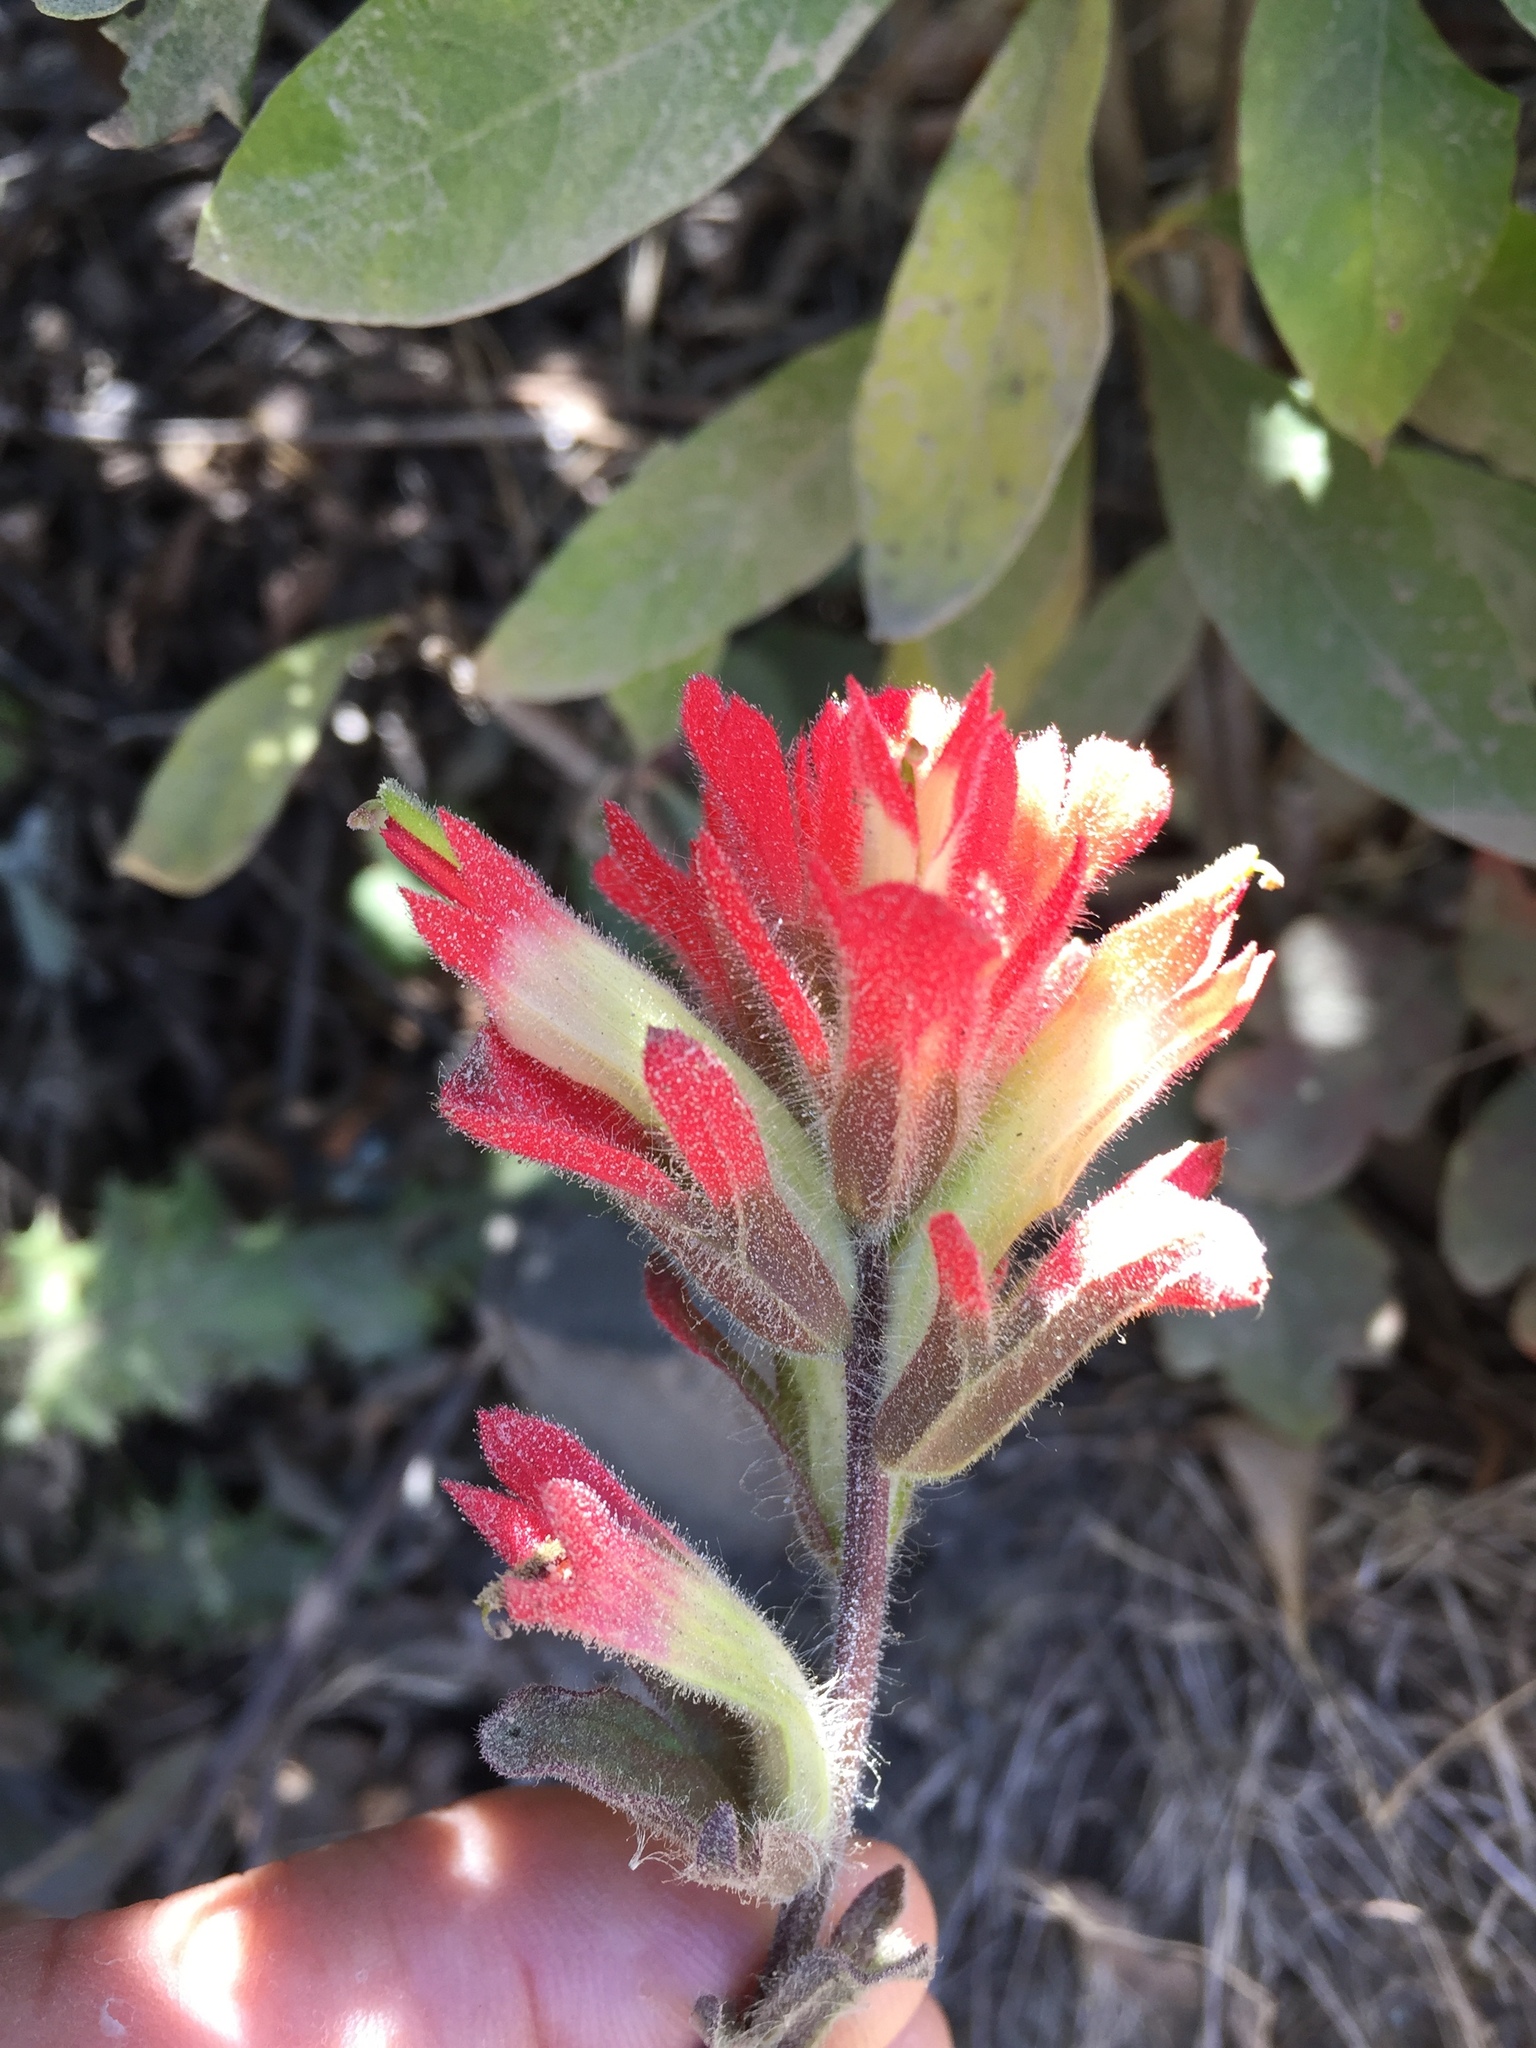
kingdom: Plantae
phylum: Tracheophyta
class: Magnoliopsida
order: Lamiales
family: Orobanchaceae
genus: Castilleja
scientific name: Castilleja affinis
